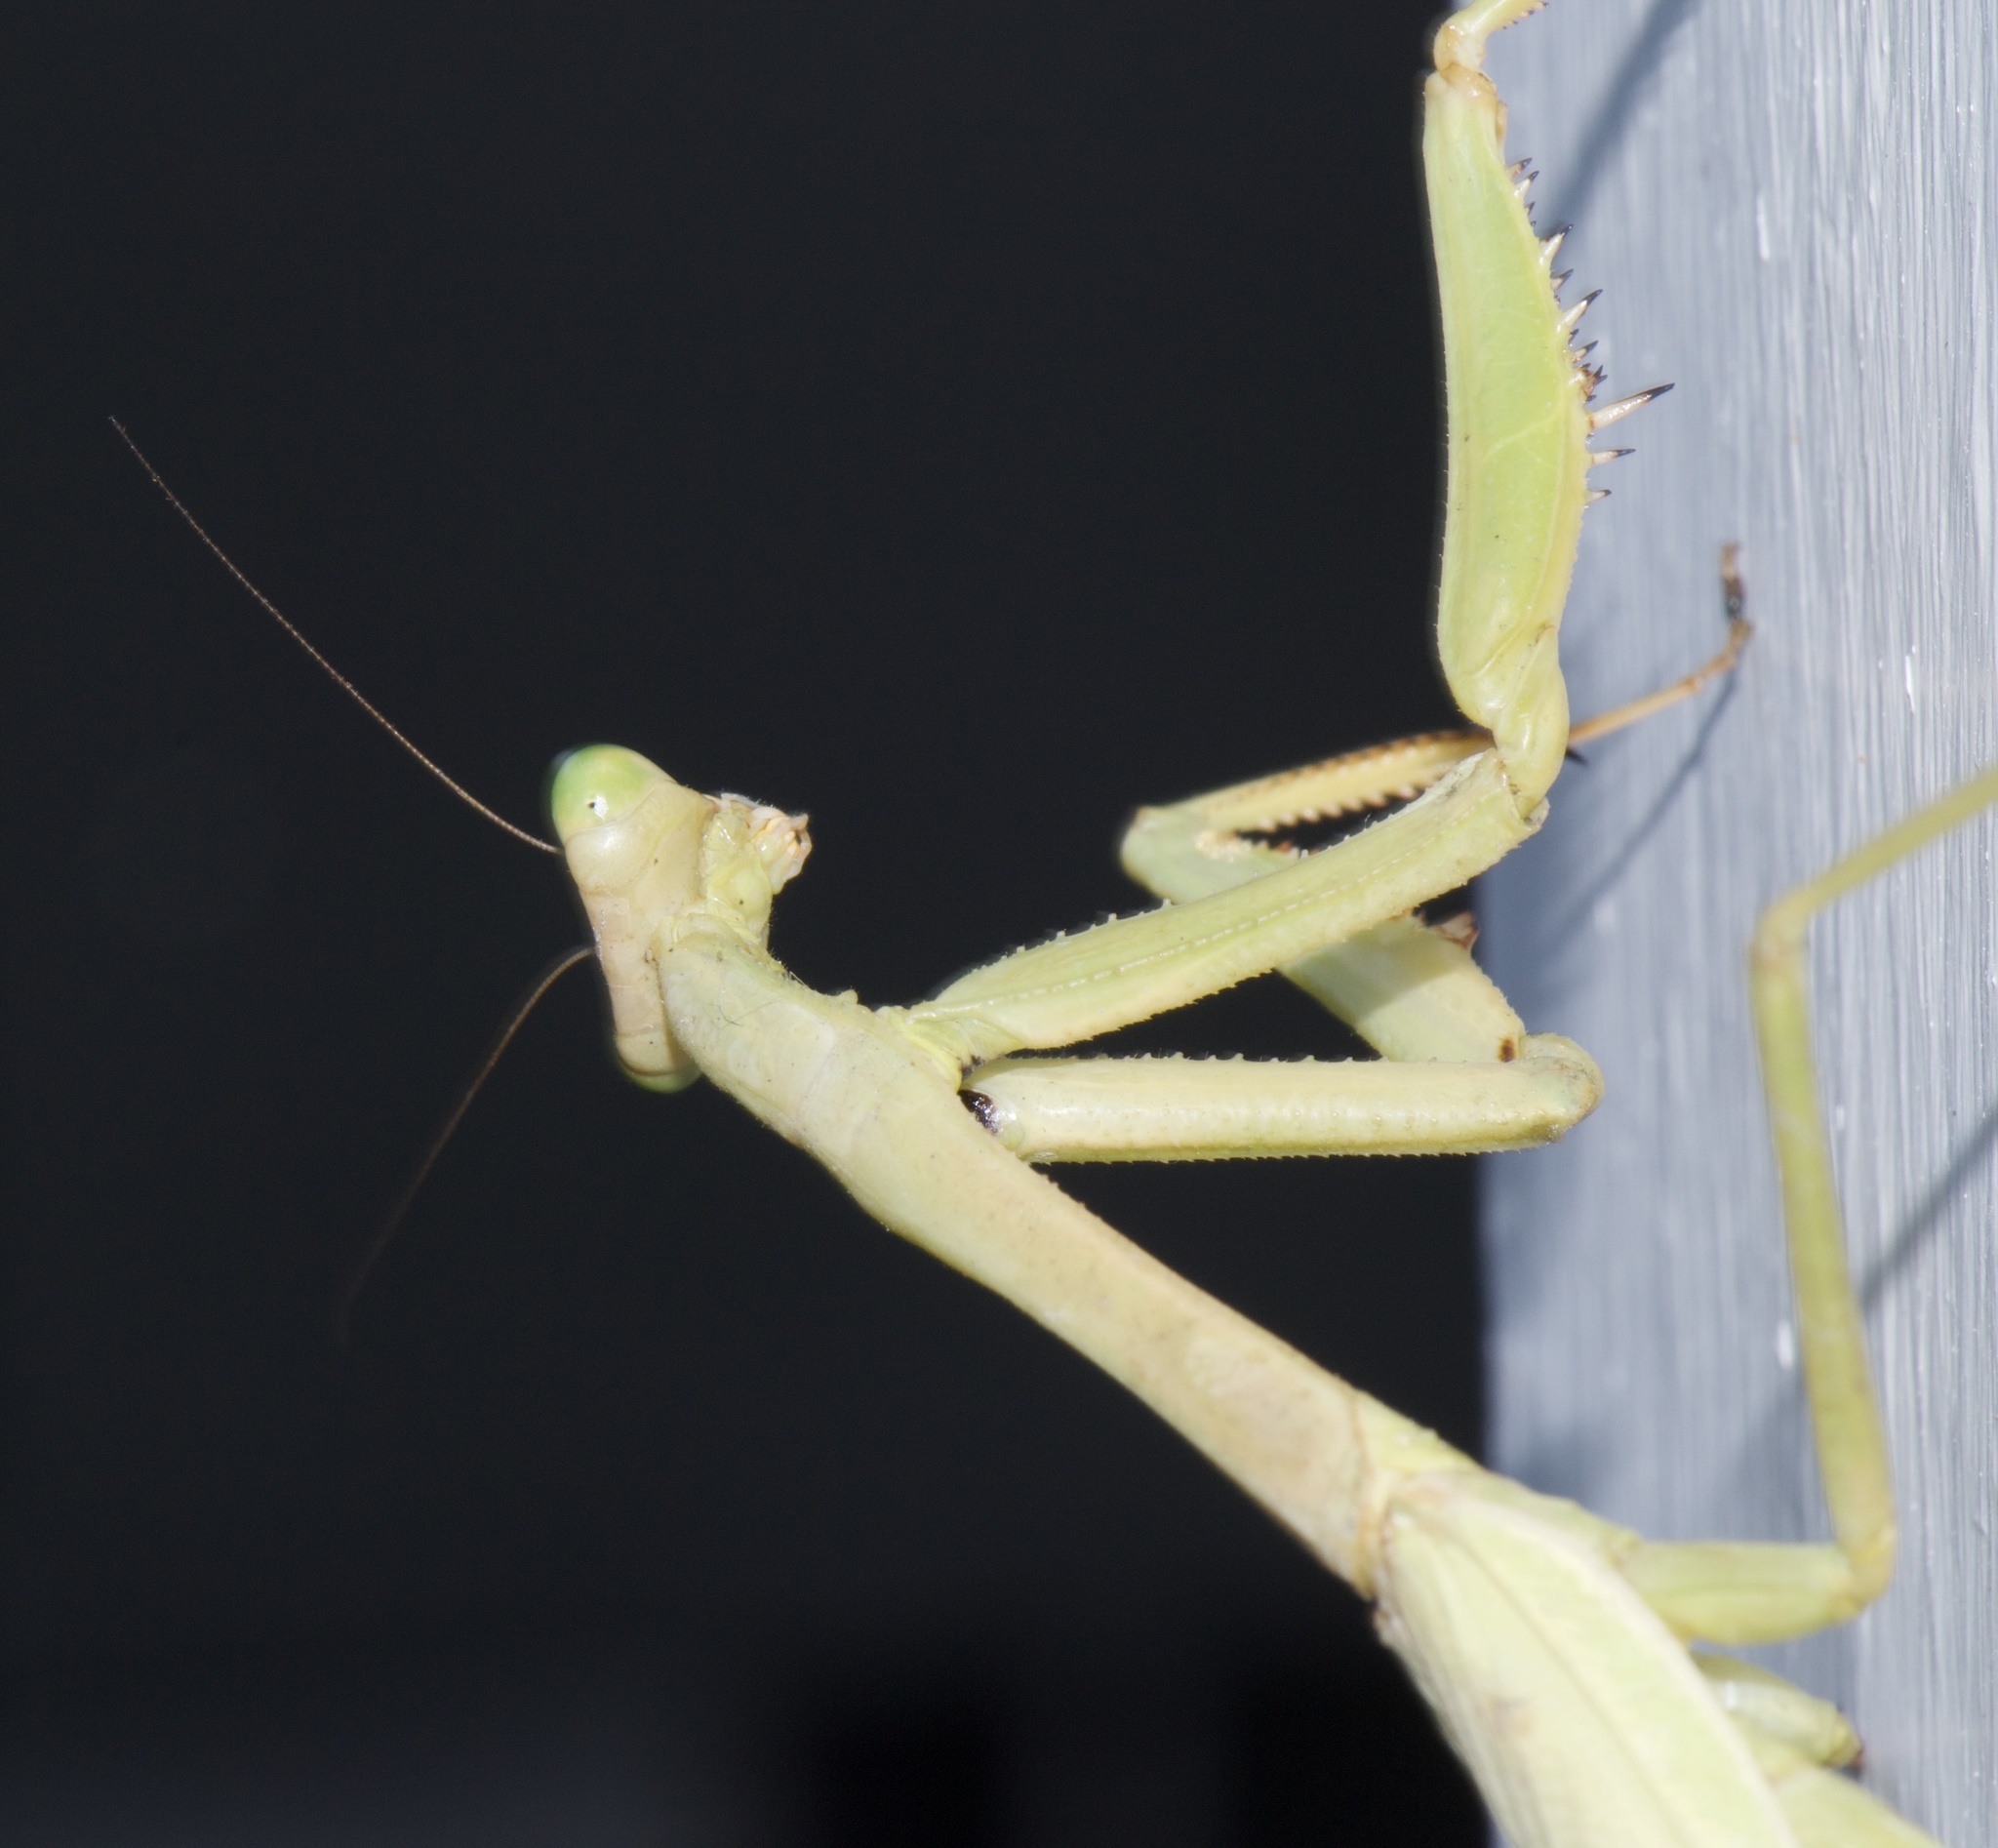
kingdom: Animalia
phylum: Arthropoda
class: Insecta
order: Mantodea
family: Mantidae
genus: Stagmomantis
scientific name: Stagmomantis carolina
